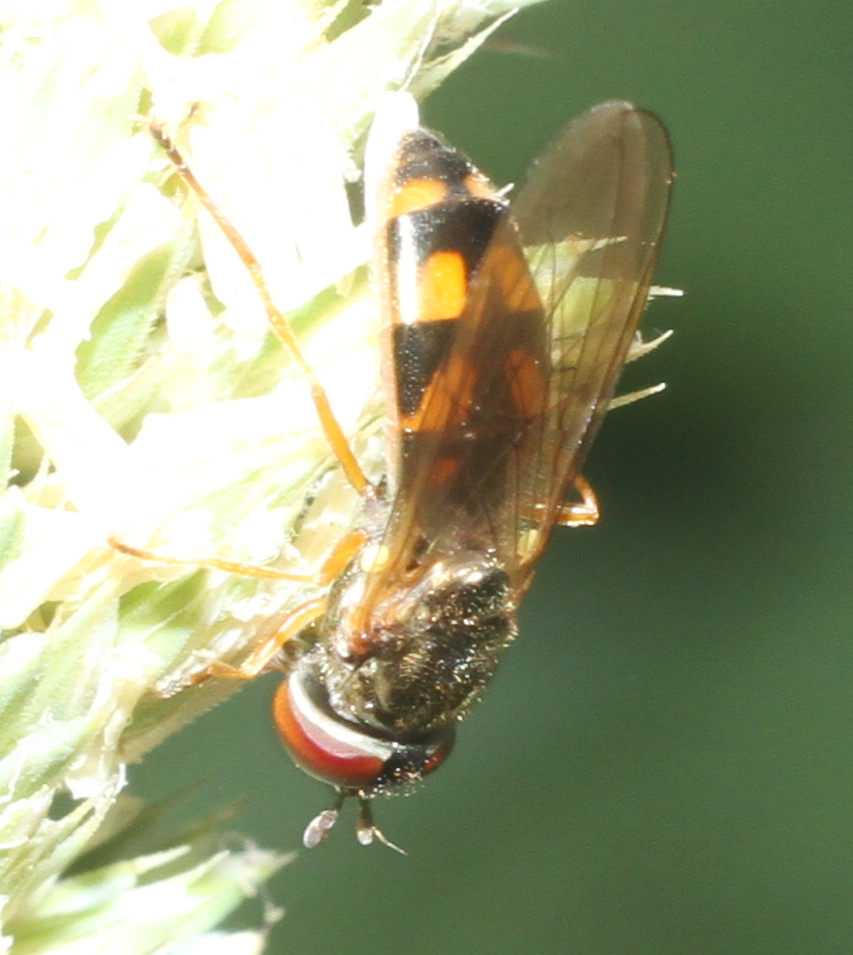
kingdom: Animalia
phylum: Arthropoda
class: Insecta
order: Diptera
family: Syrphidae
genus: Melanostoma
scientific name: Melanostoma mellina
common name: Hover fly
